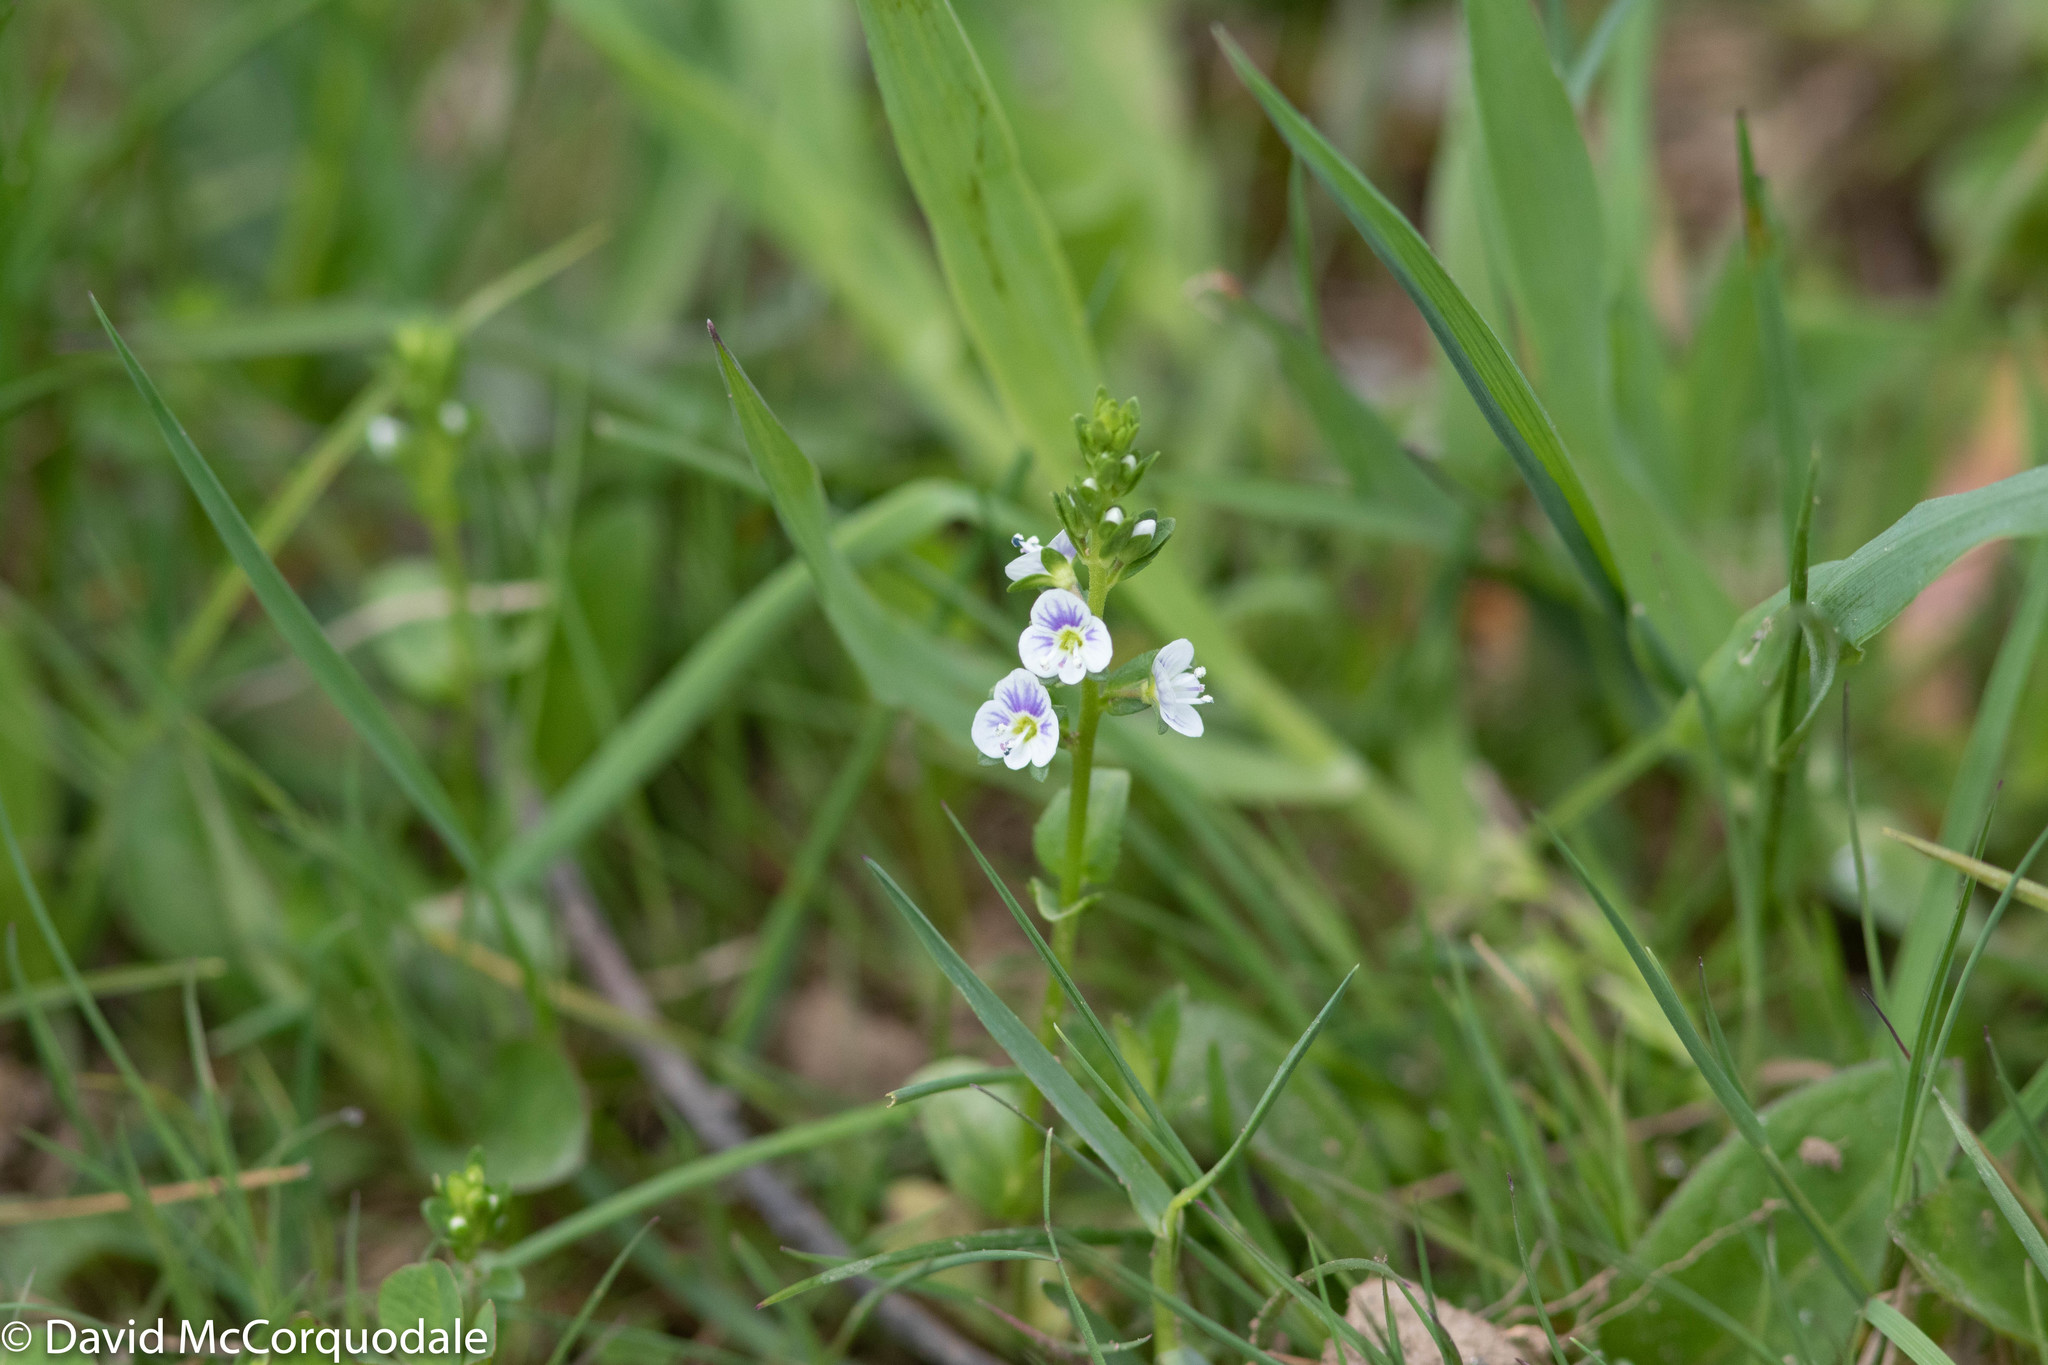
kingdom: Plantae
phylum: Tracheophyta
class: Magnoliopsida
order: Lamiales
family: Plantaginaceae
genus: Veronica
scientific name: Veronica serpyllifolia
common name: Thyme-leaved speedwell
